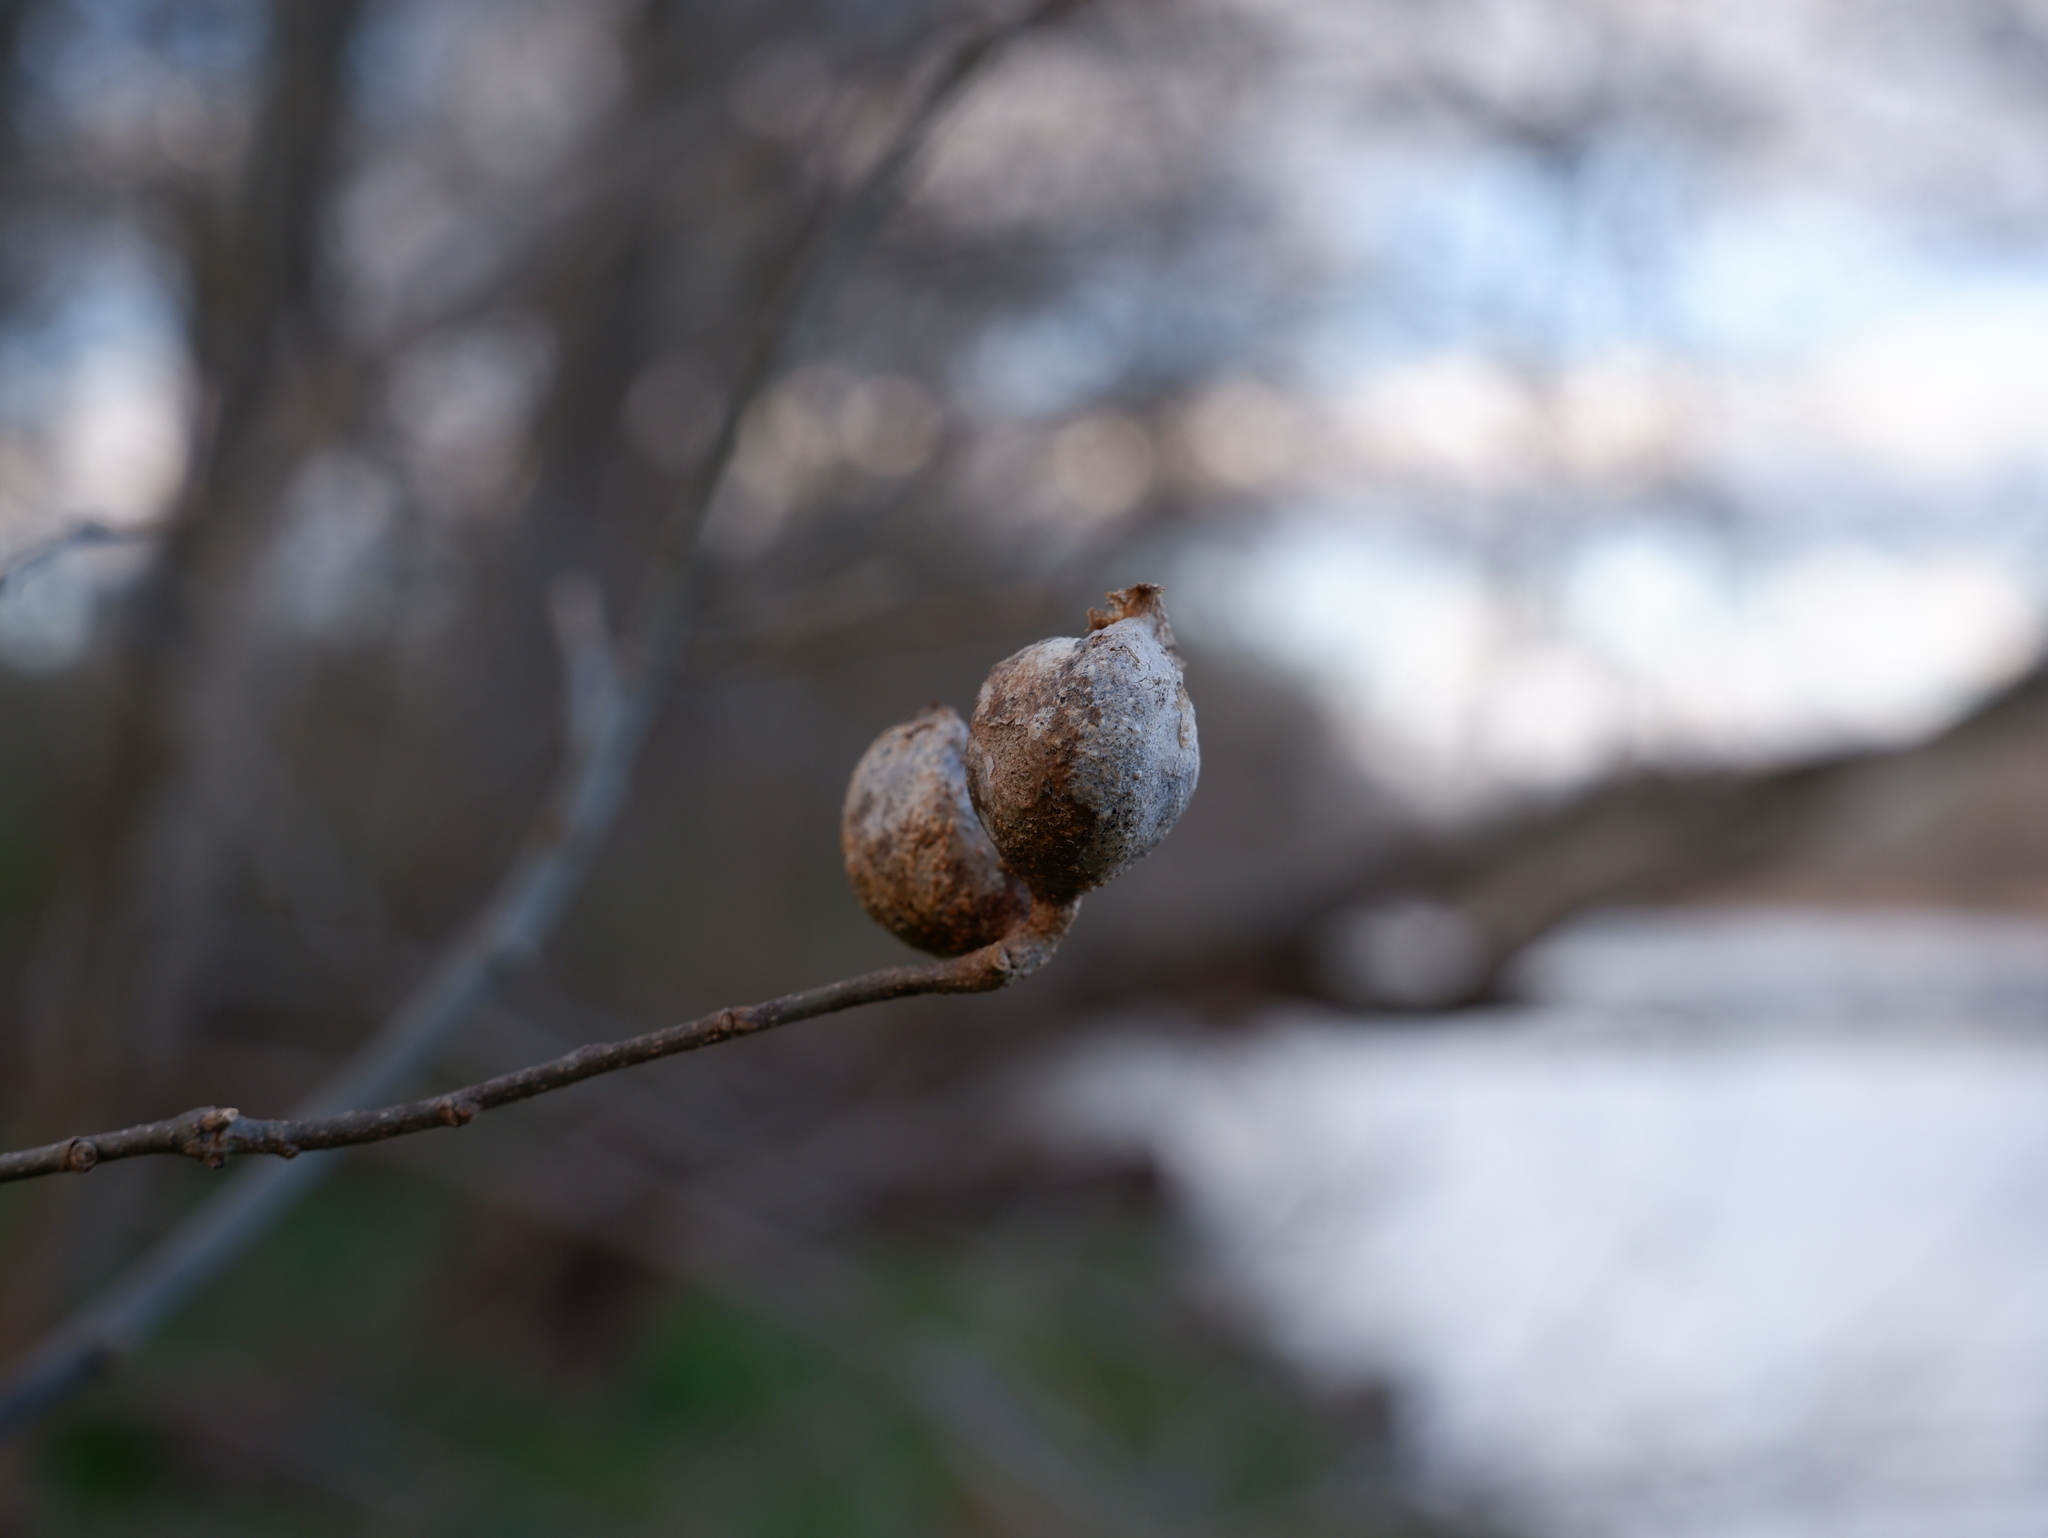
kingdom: Animalia
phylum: Arthropoda
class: Insecta
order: Hemiptera
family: Aphalaridae
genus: Pachypsylla
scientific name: Pachypsylla venusta
